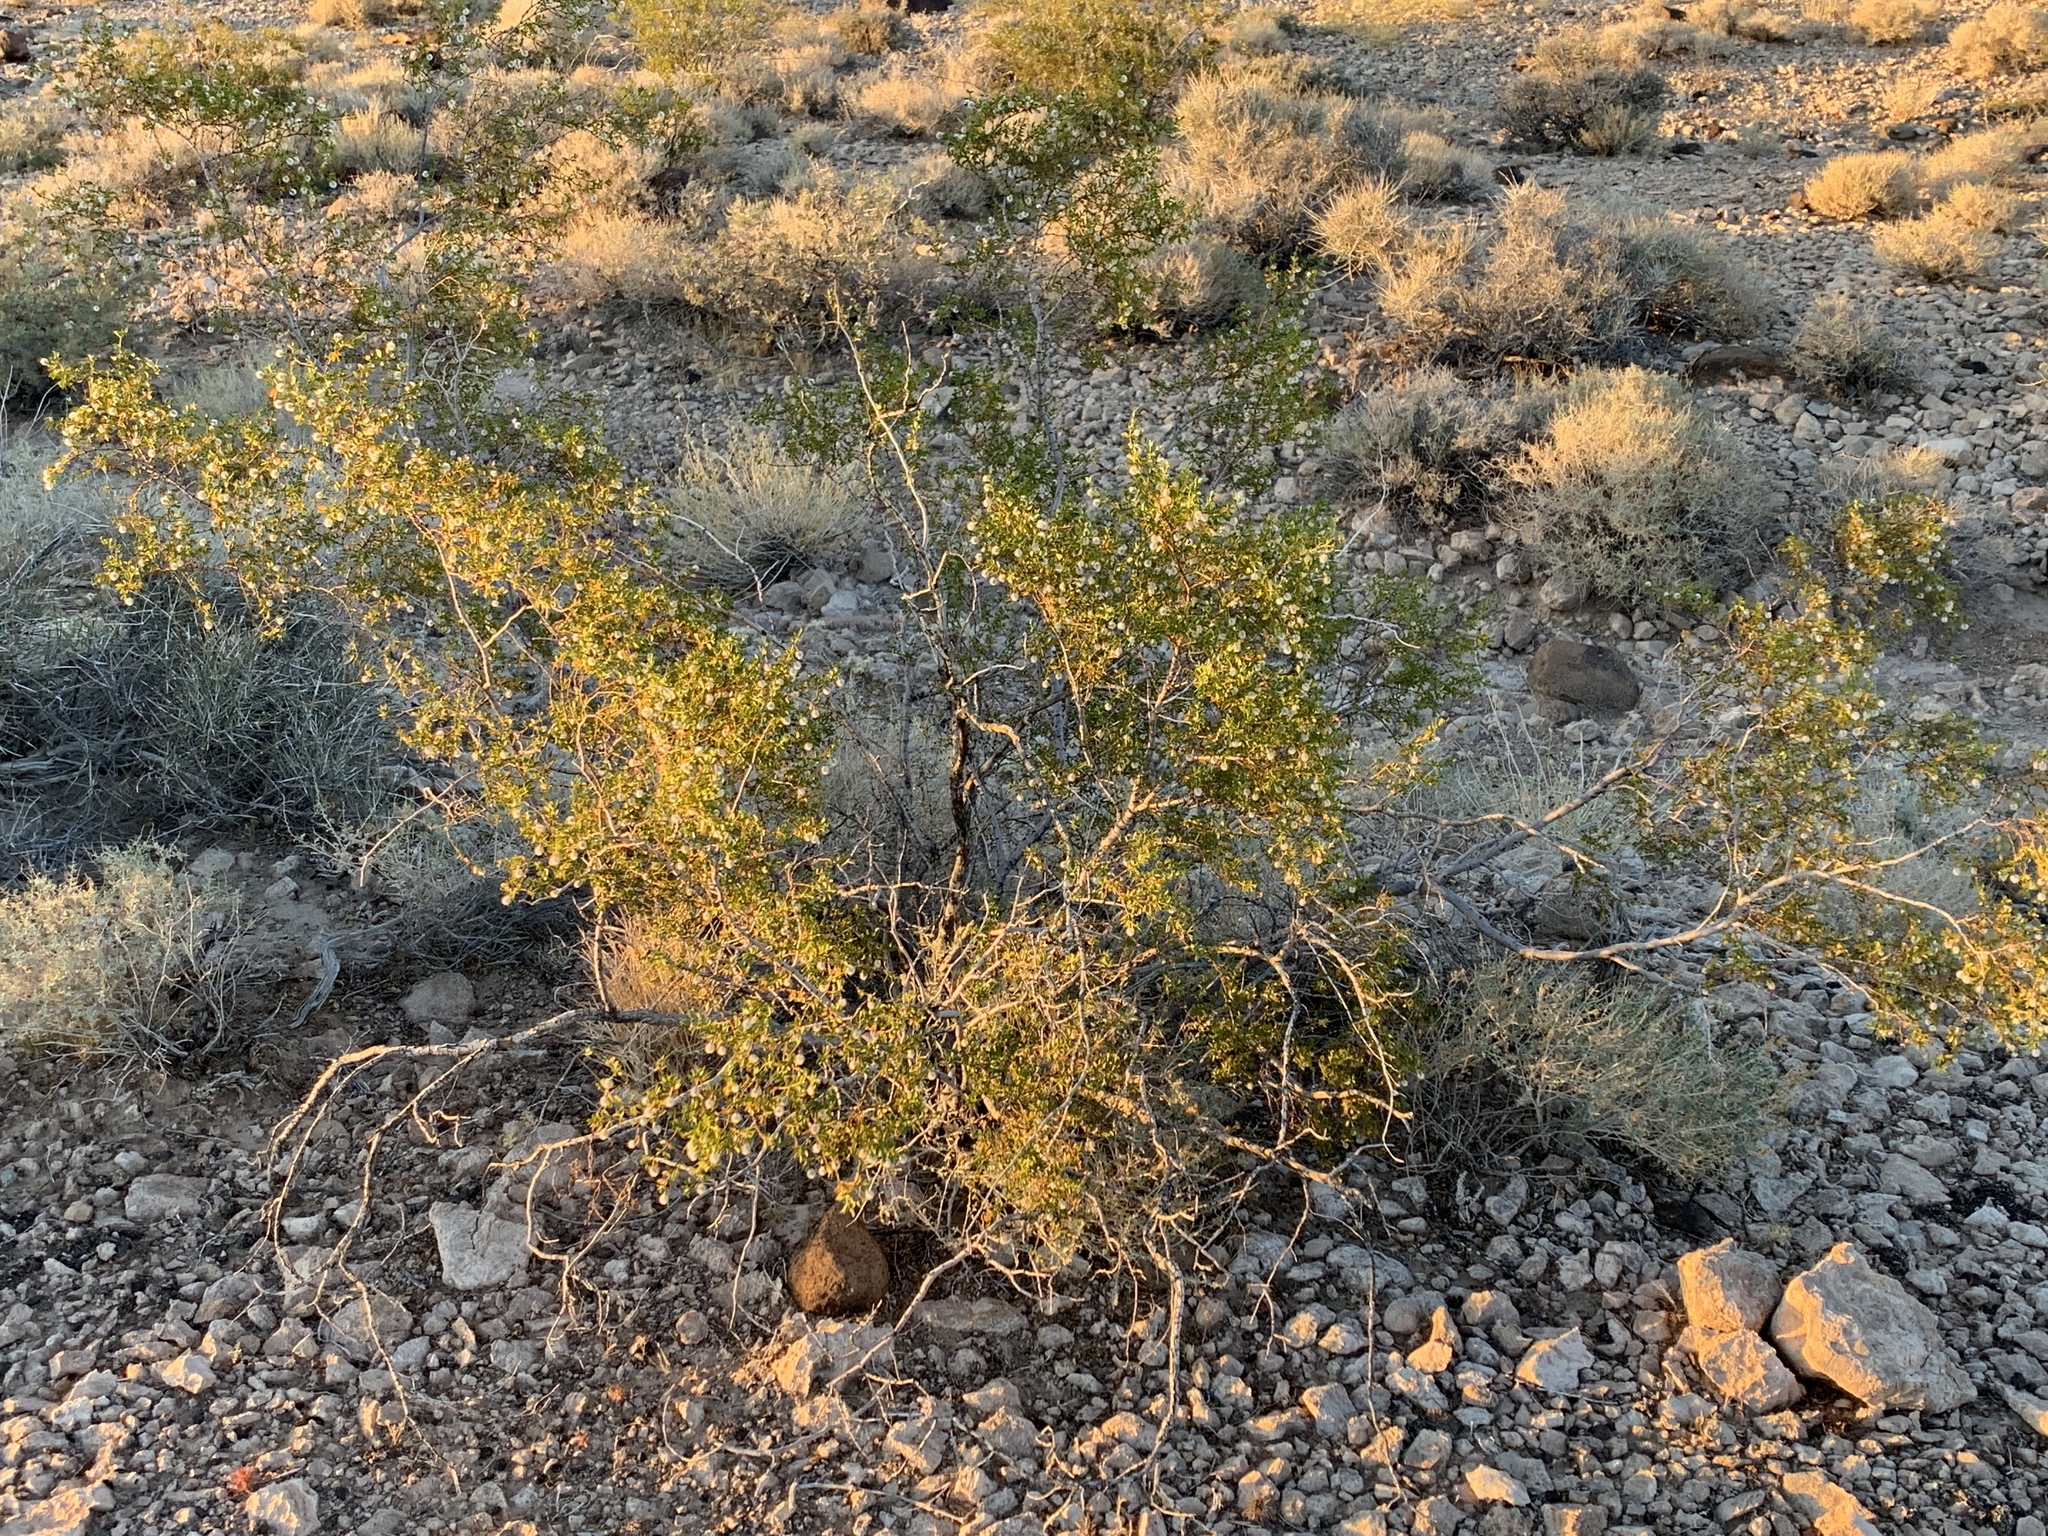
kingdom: Plantae
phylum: Tracheophyta
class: Magnoliopsida
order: Zygophyllales
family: Zygophyllaceae
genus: Larrea
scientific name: Larrea tridentata
